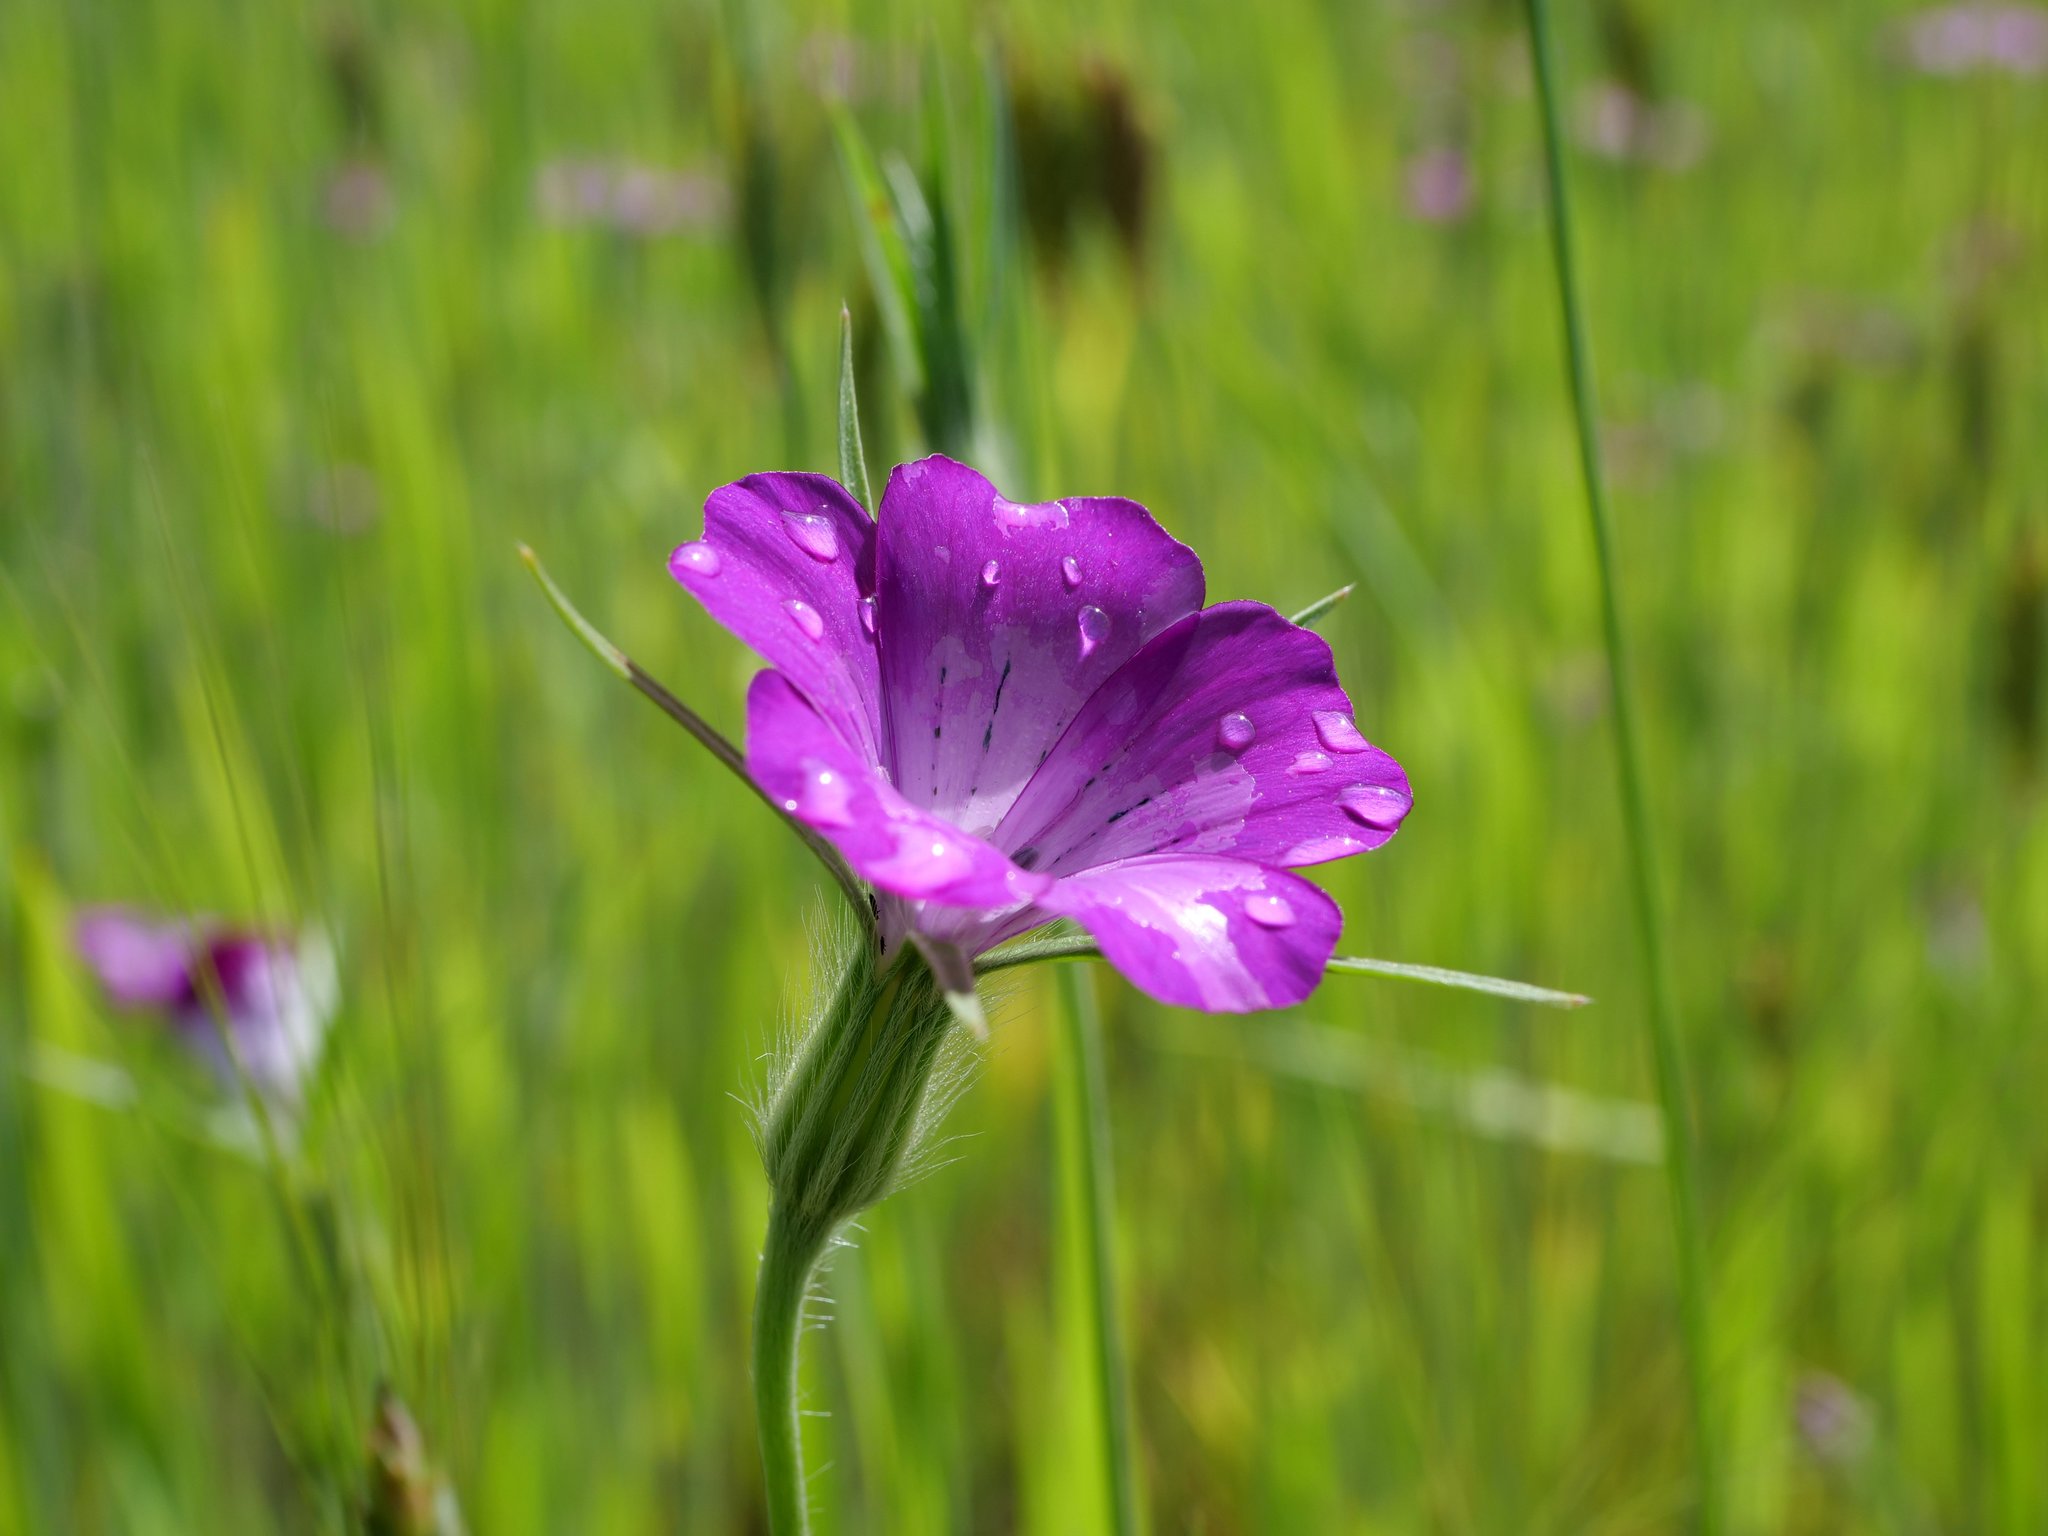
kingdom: Plantae
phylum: Tracheophyta
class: Magnoliopsida
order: Caryophyllales
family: Caryophyllaceae
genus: Agrostemma
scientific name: Agrostemma githago
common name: Common corncockle
